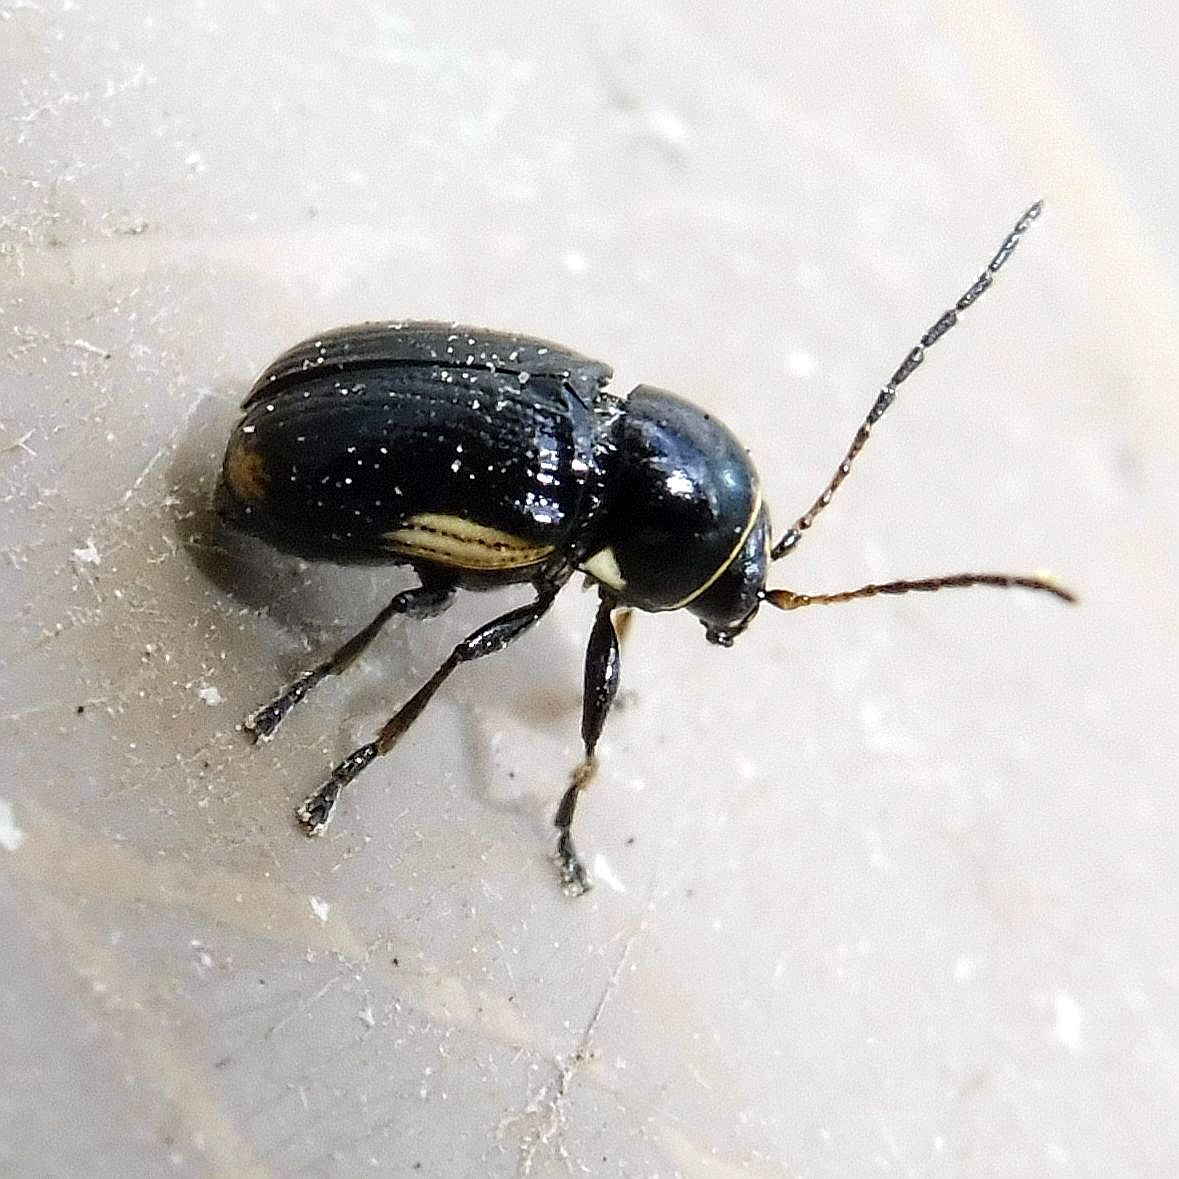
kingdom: Animalia
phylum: Arthropoda
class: Insecta
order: Coleoptera
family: Chrysomelidae
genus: Cryptocephalus
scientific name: Cryptocephalus moraei
